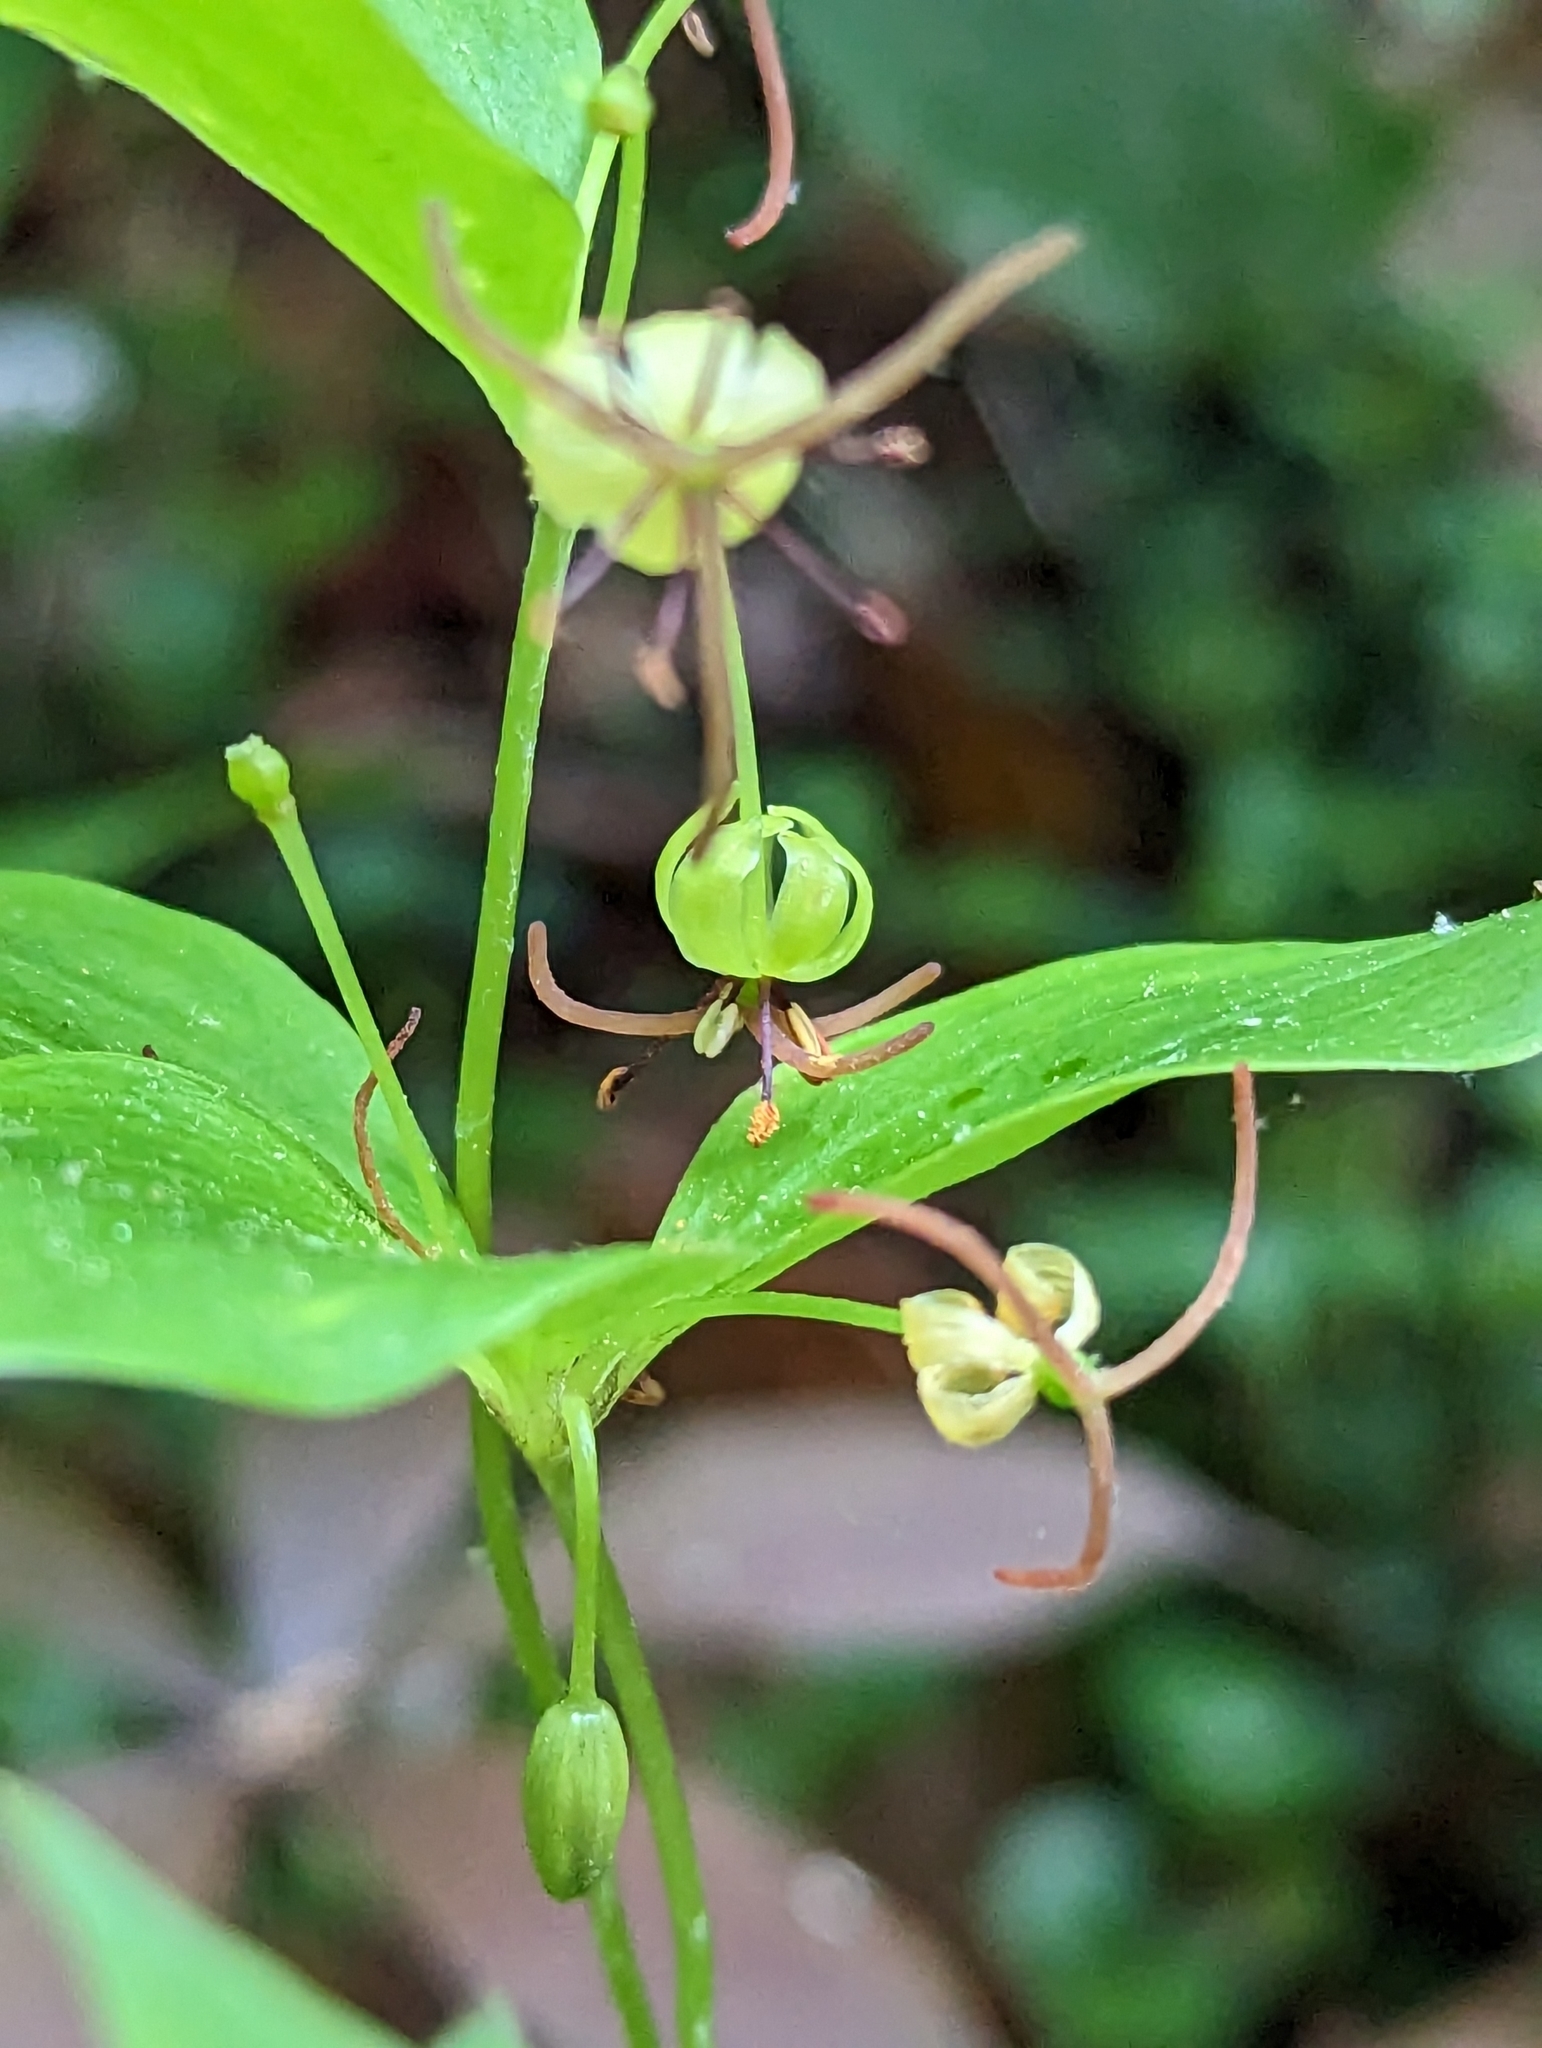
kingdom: Plantae
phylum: Tracheophyta
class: Liliopsida
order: Liliales
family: Liliaceae
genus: Medeola
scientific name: Medeola virginiana
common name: Indian cucumber-root
